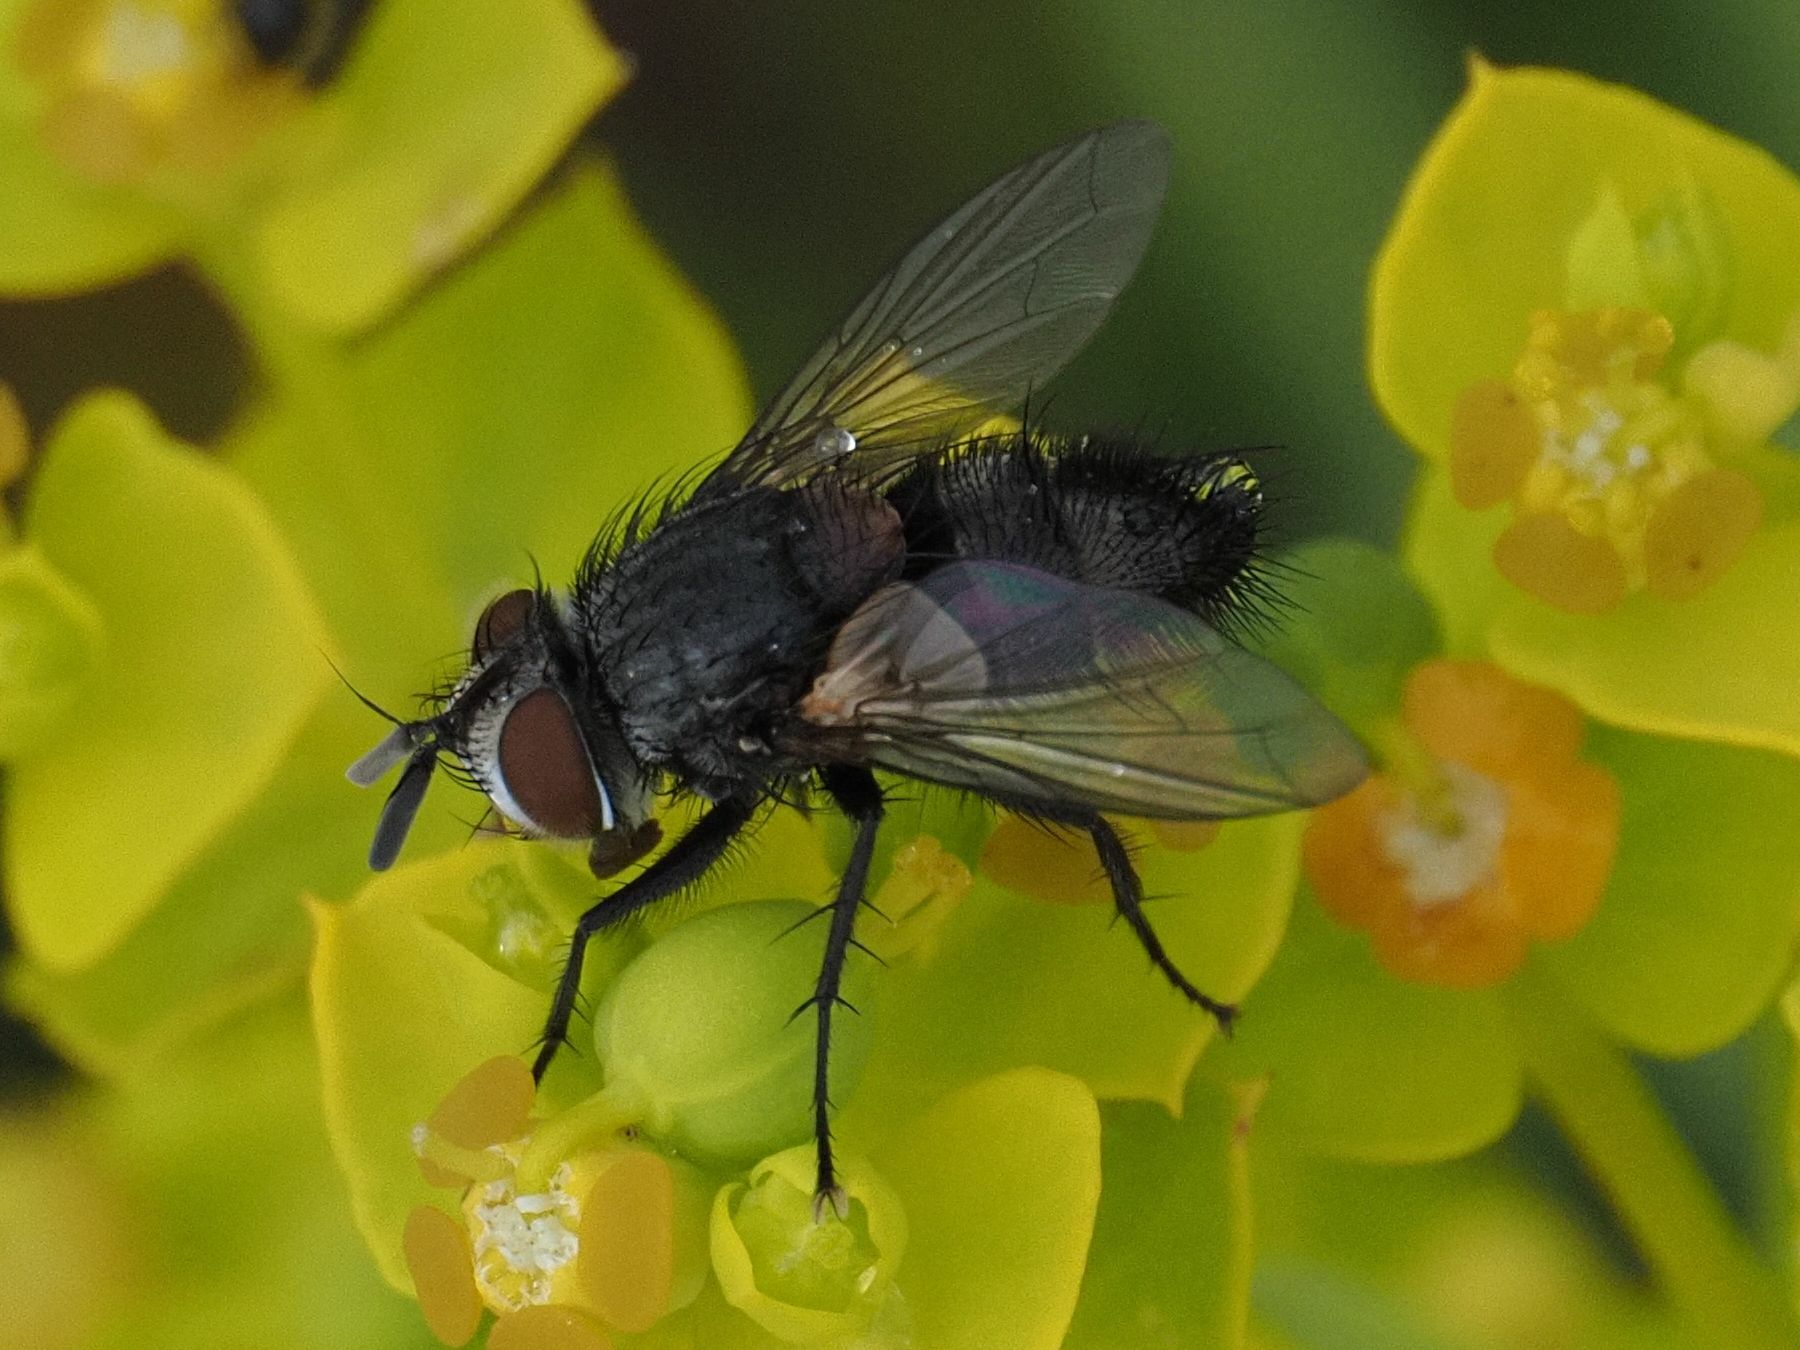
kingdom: Animalia
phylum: Arthropoda
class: Insecta
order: Diptera
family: Tachinidae
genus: Aplomya
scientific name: Aplomya confinis
